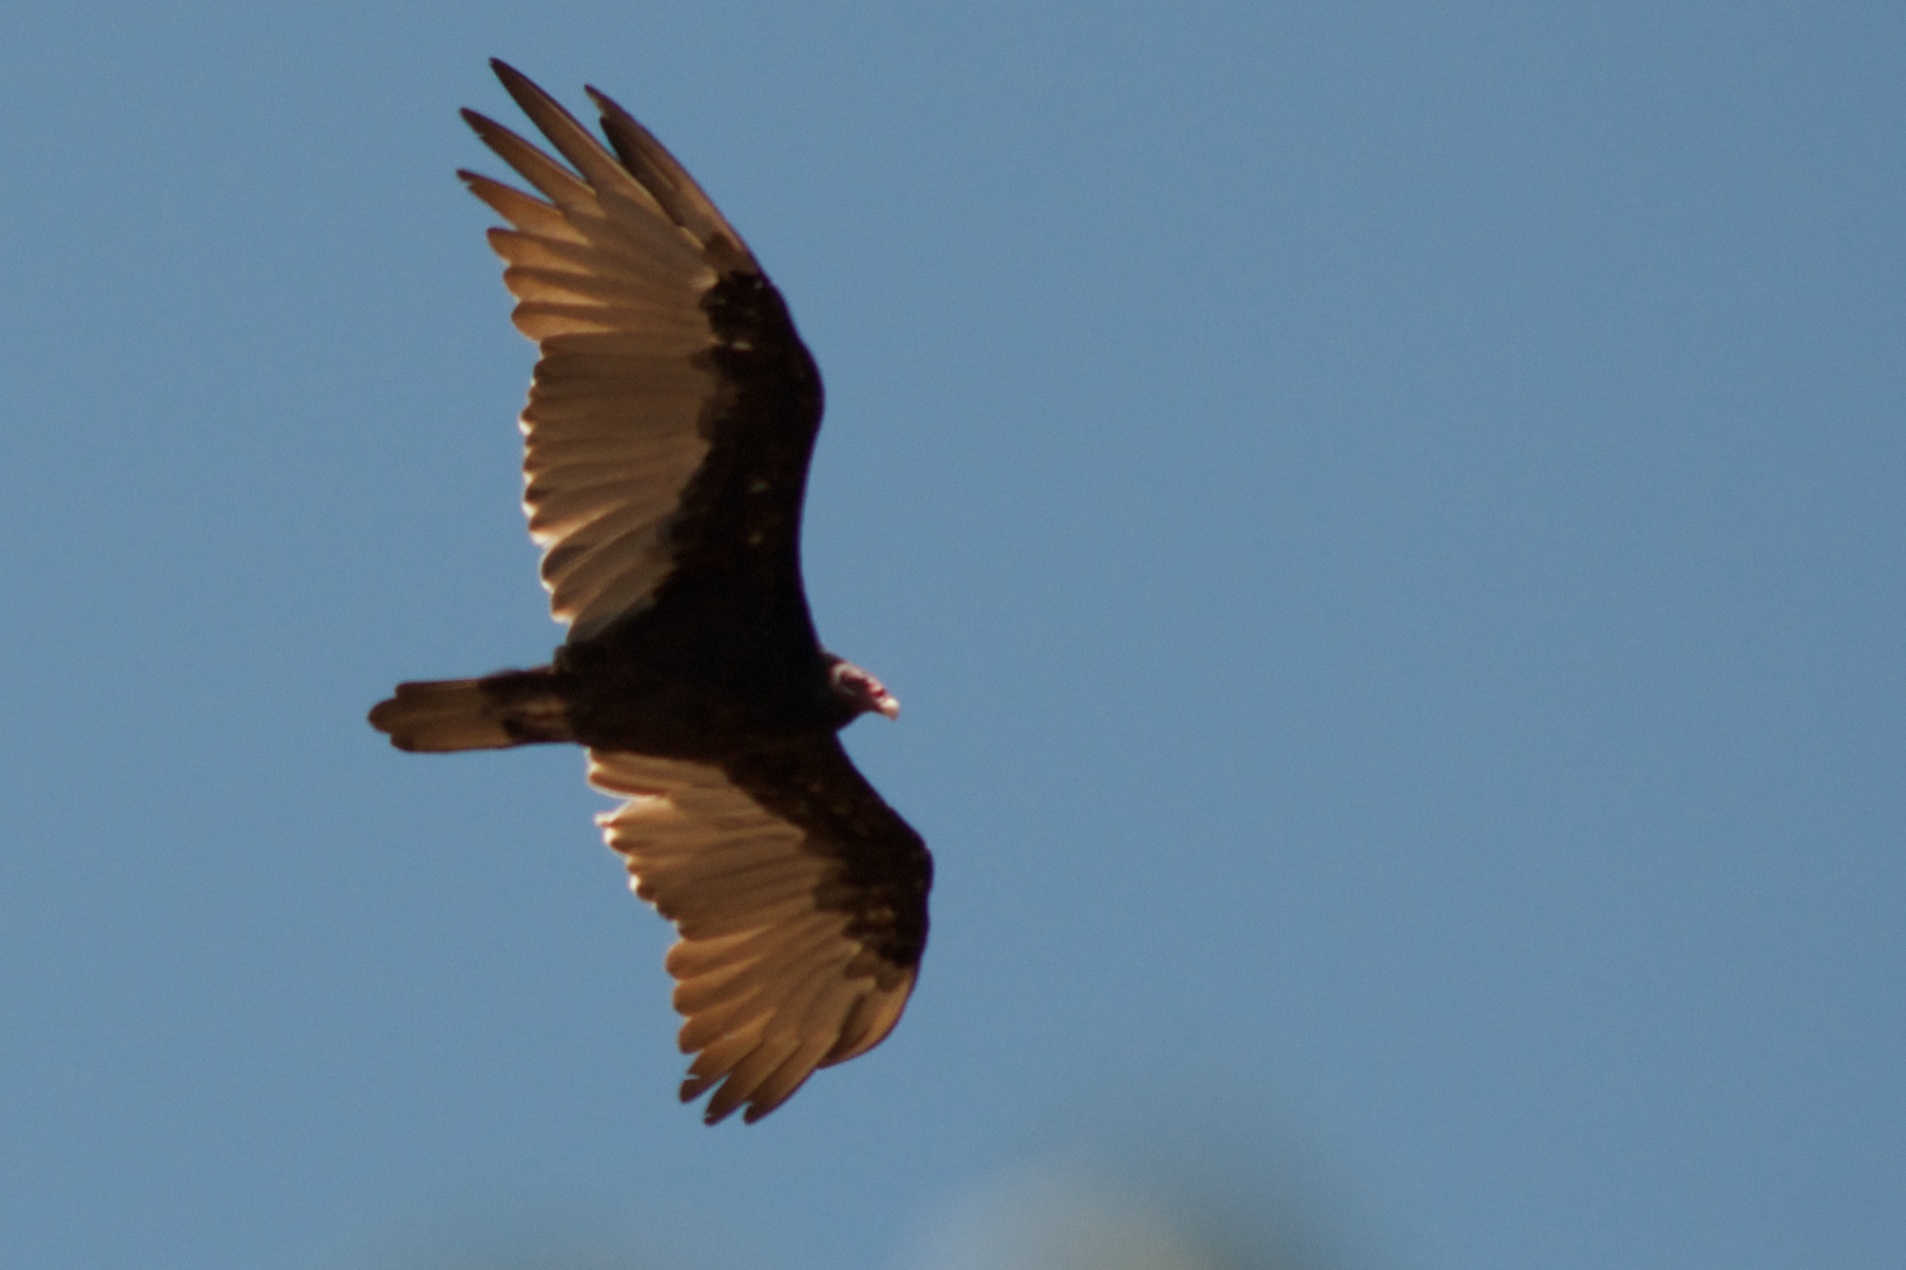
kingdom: Animalia
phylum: Chordata
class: Aves
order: Accipitriformes
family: Cathartidae
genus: Cathartes
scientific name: Cathartes aura
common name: Turkey vulture
